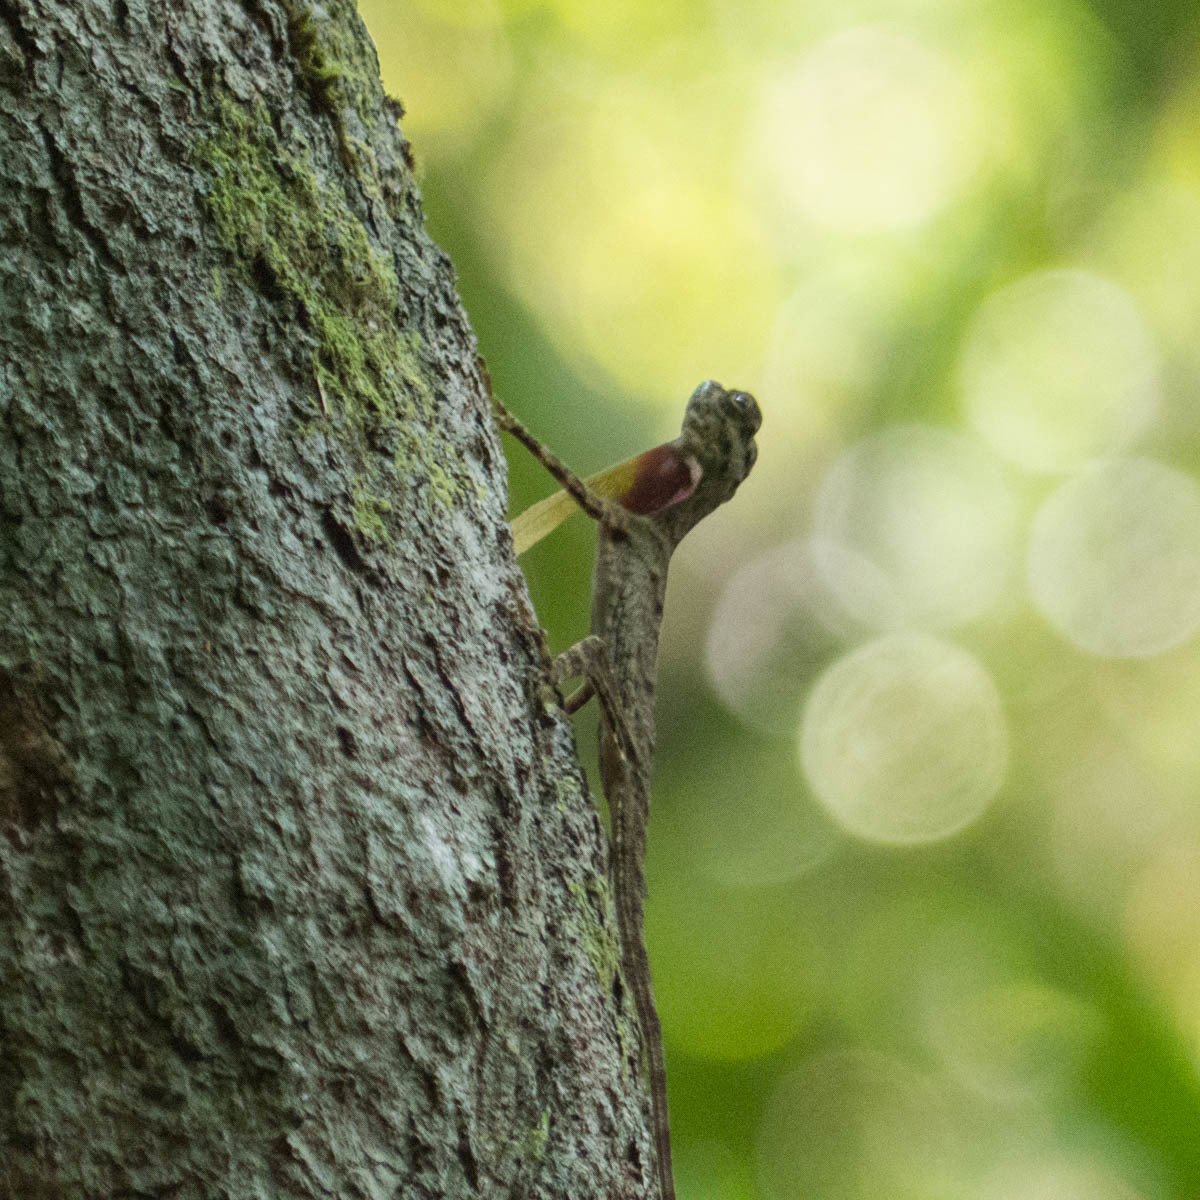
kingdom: Animalia
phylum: Chordata
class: Squamata
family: Agamidae
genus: Draco
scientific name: Draco taeniopterus
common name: Thai flying dragon
